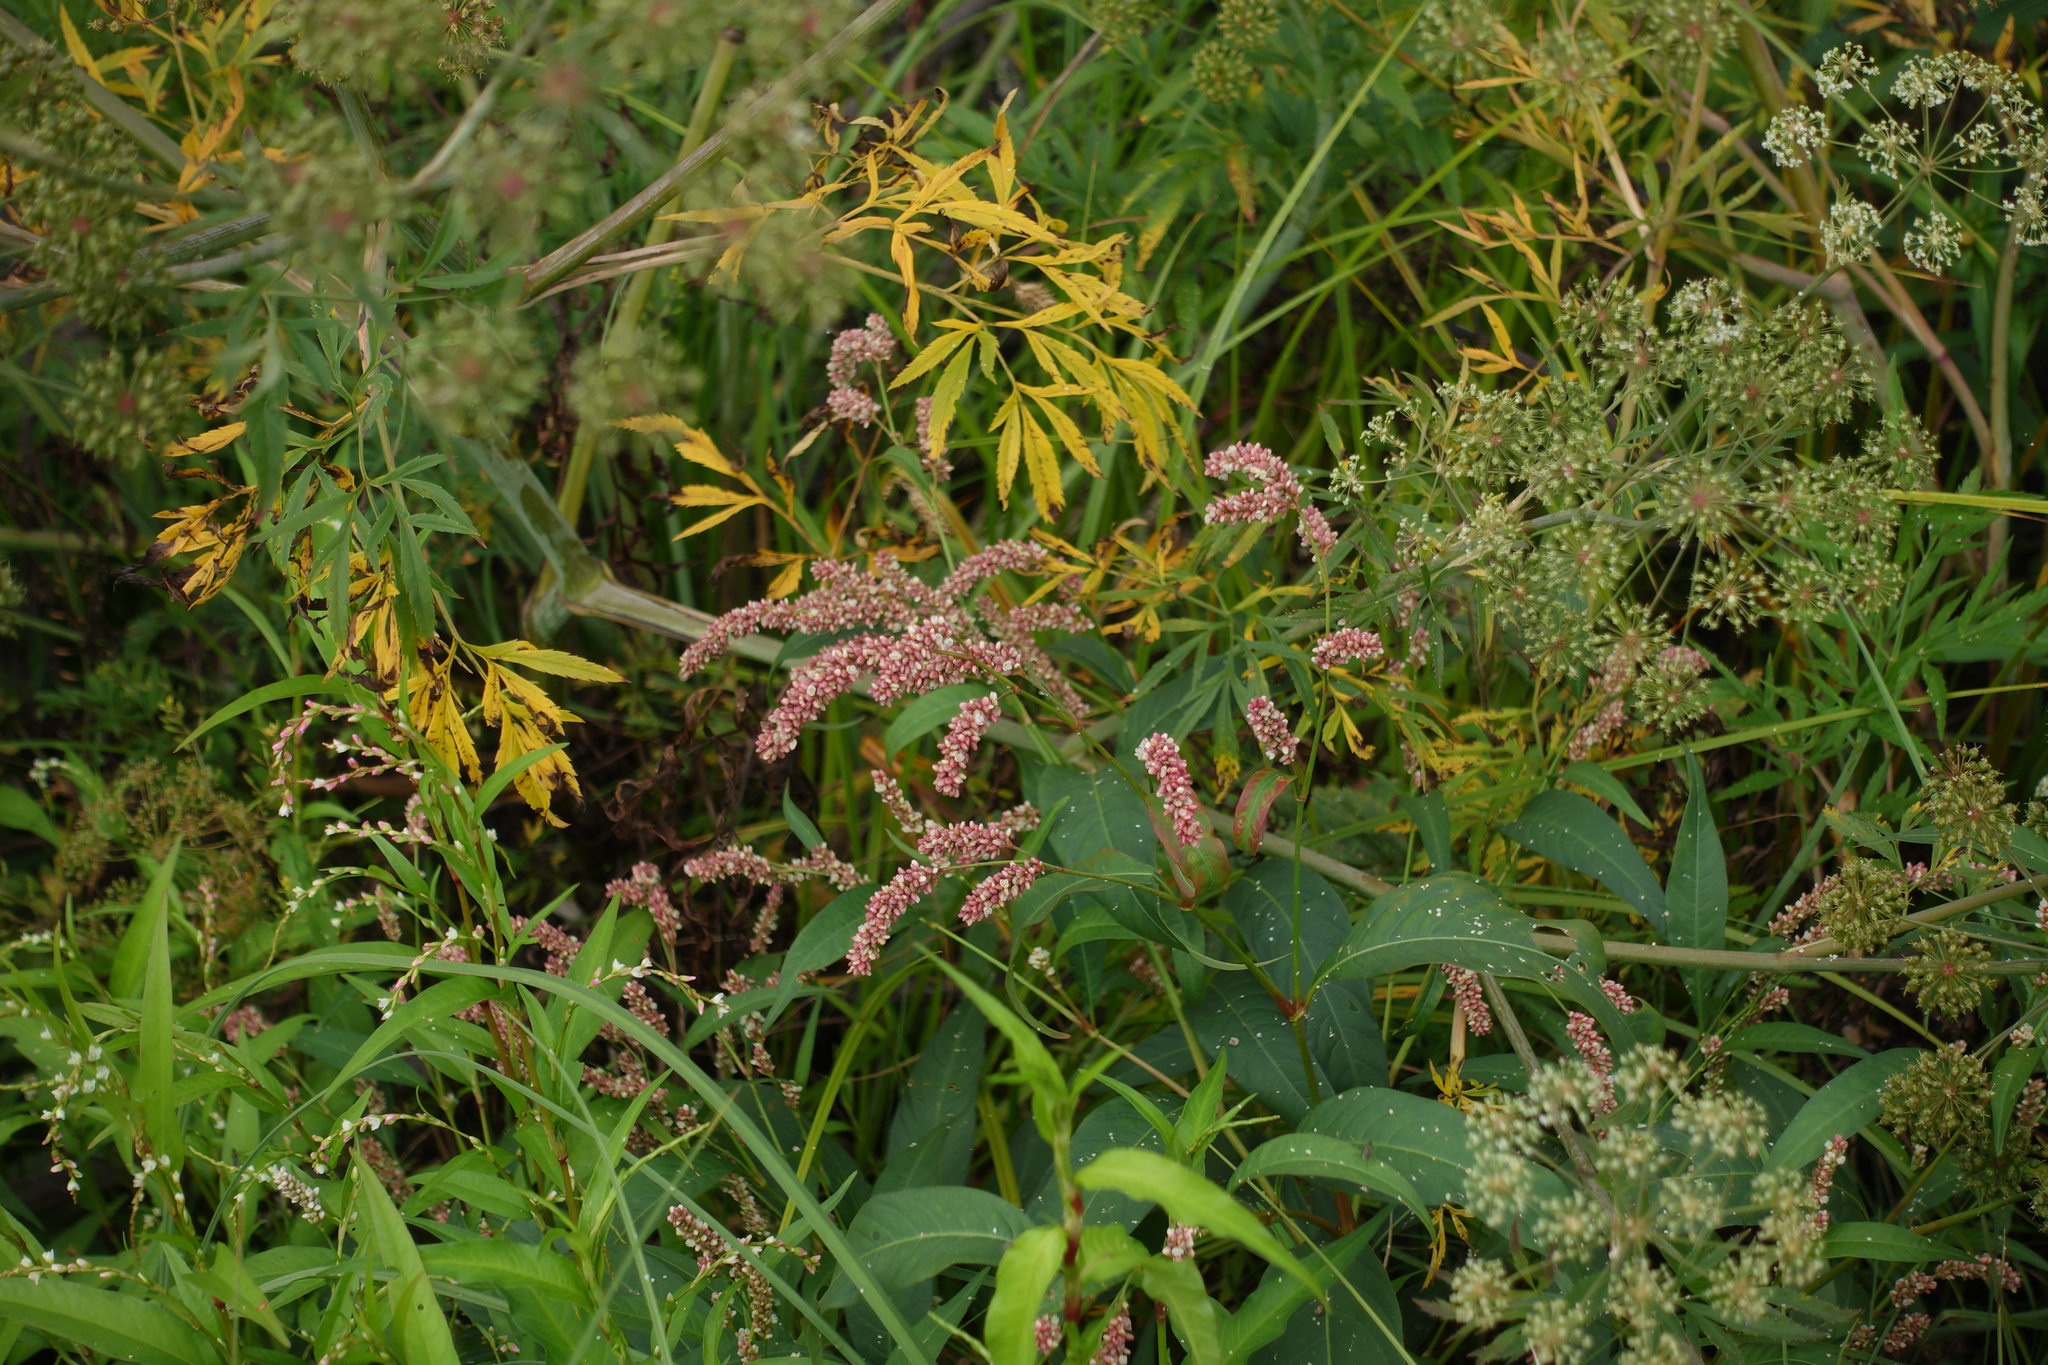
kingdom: Plantae
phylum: Tracheophyta
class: Magnoliopsida
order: Caryophyllales
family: Polygonaceae
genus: Persicaria
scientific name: Persicaria lapathifolia
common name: Curlytop knotweed
